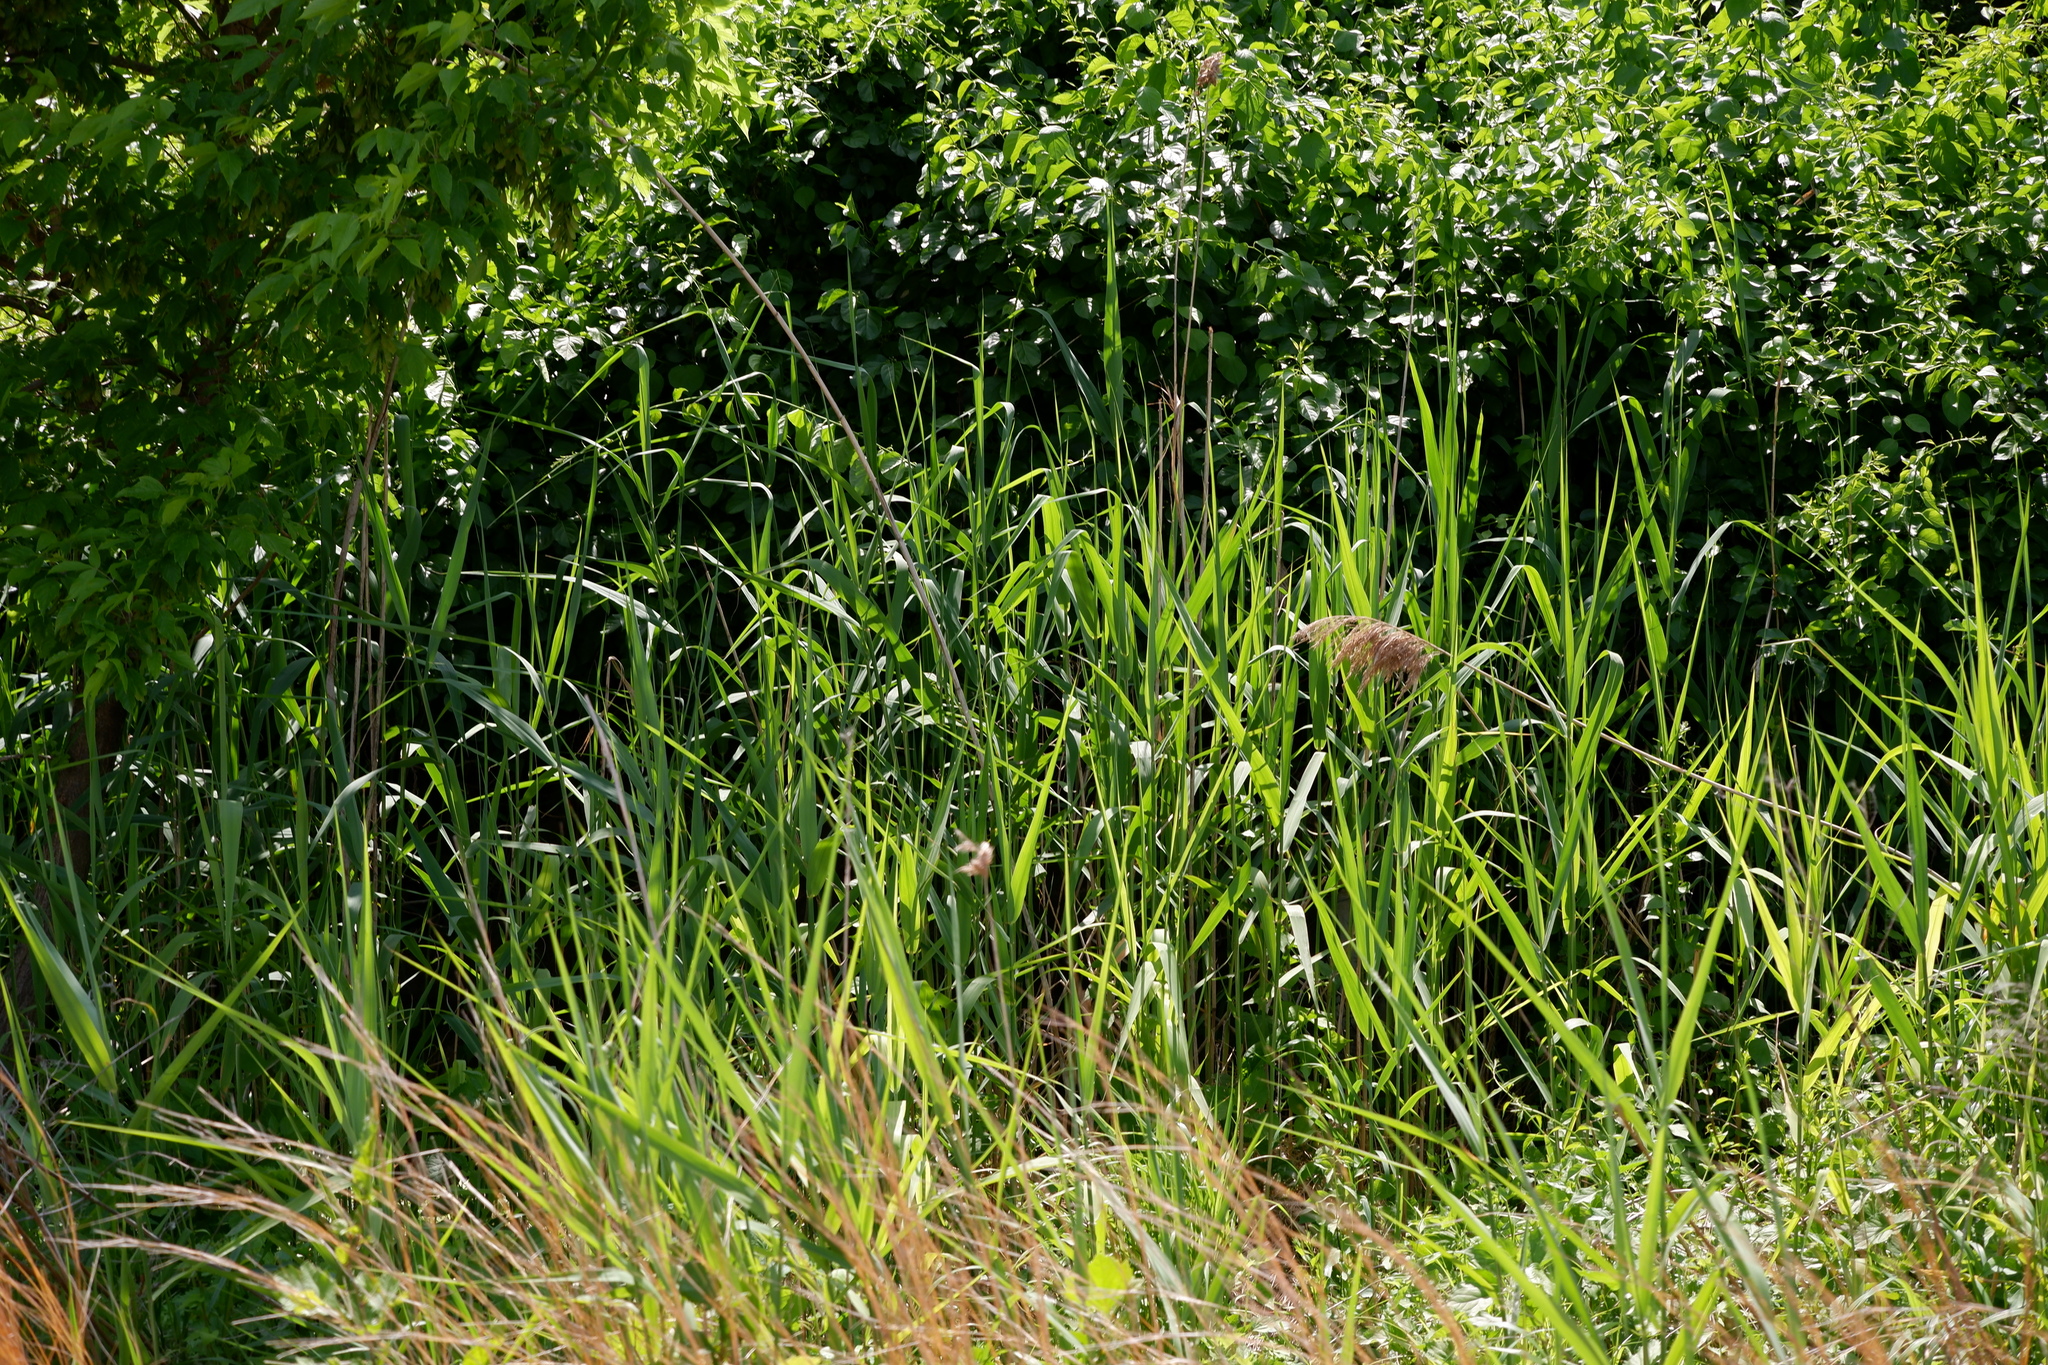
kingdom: Plantae
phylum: Tracheophyta
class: Liliopsida
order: Poales
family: Poaceae
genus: Phragmites
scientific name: Phragmites australis
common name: Common reed
